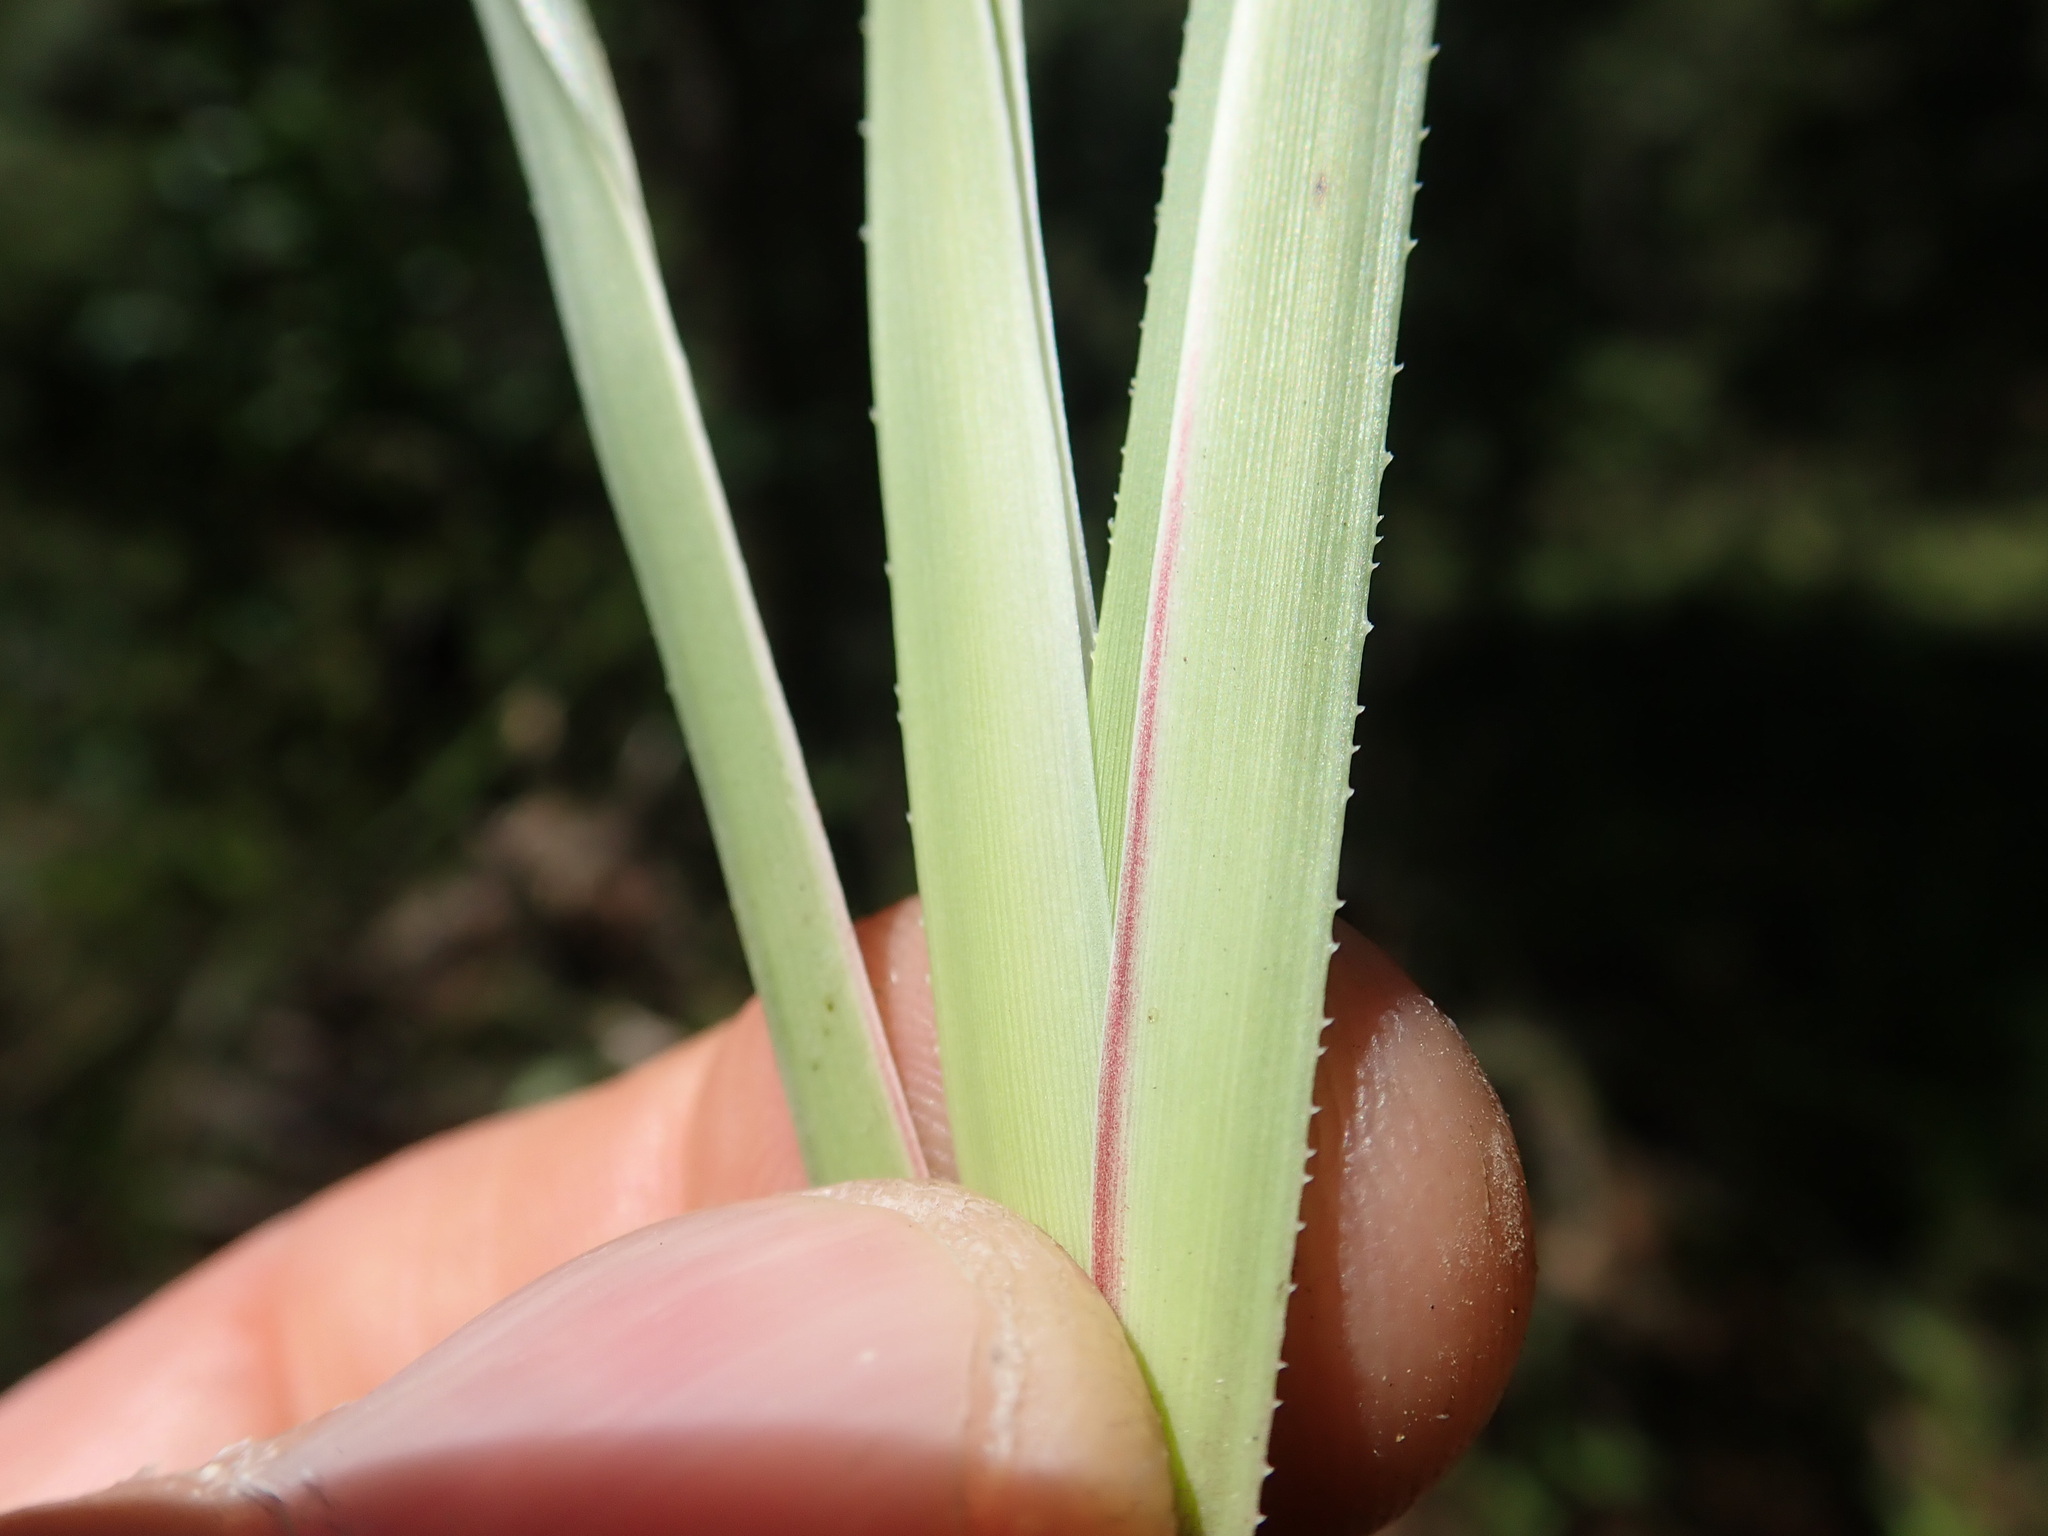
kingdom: Plantae
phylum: Tracheophyta
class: Liliopsida
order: Asparagales
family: Asphodelaceae
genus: Dianella
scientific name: Dianella caerulea
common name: Blue flax-lily
